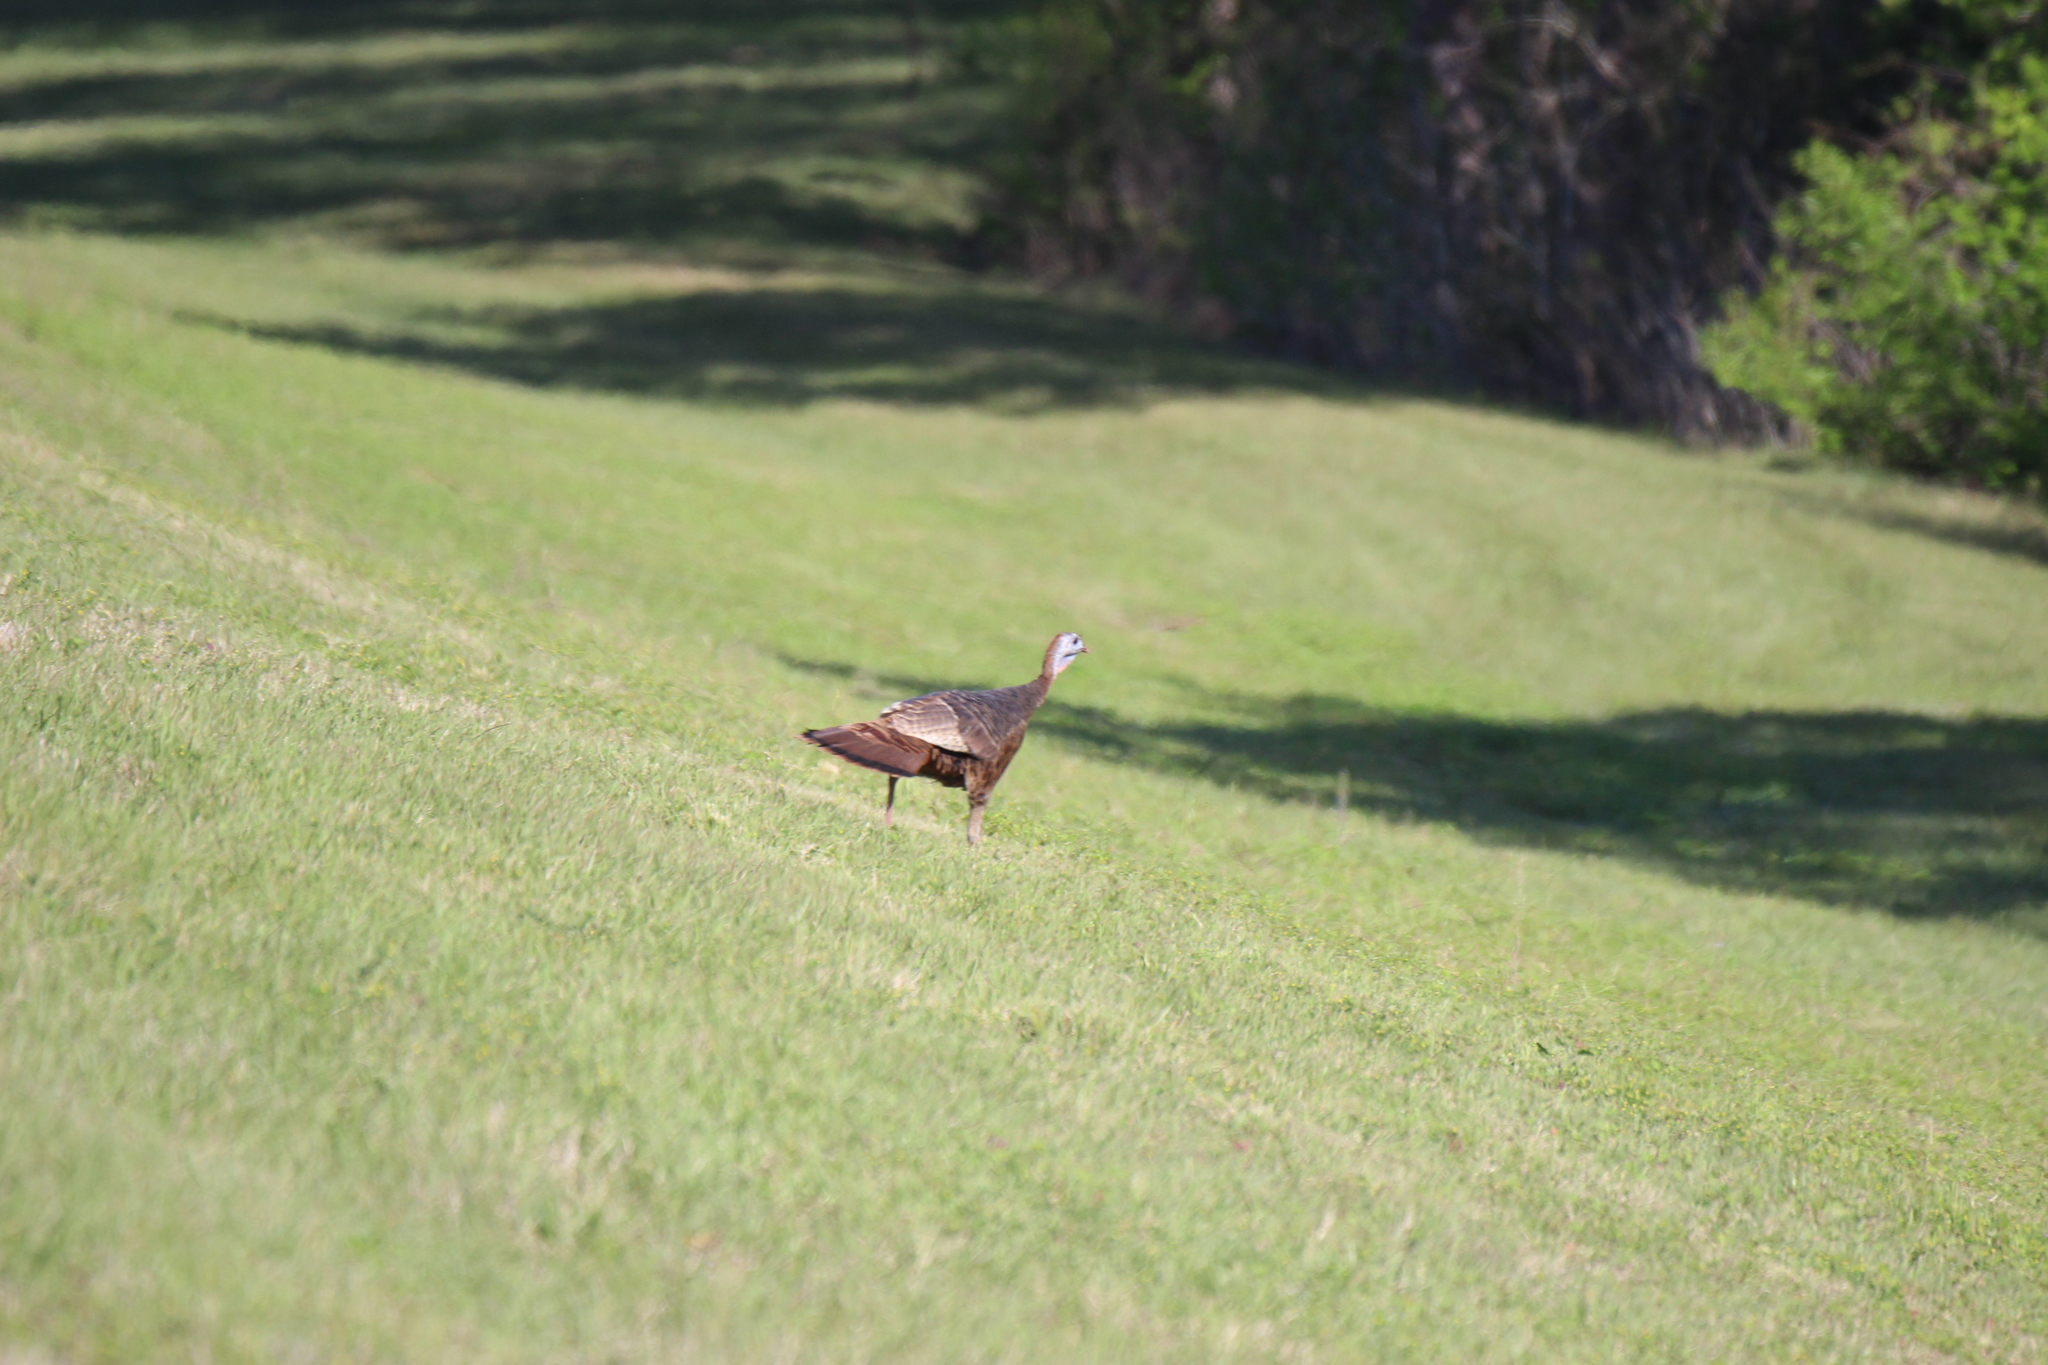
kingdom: Animalia
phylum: Chordata
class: Aves
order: Galliformes
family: Phasianidae
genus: Meleagris
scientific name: Meleagris gallopavo
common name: Wild turkey
